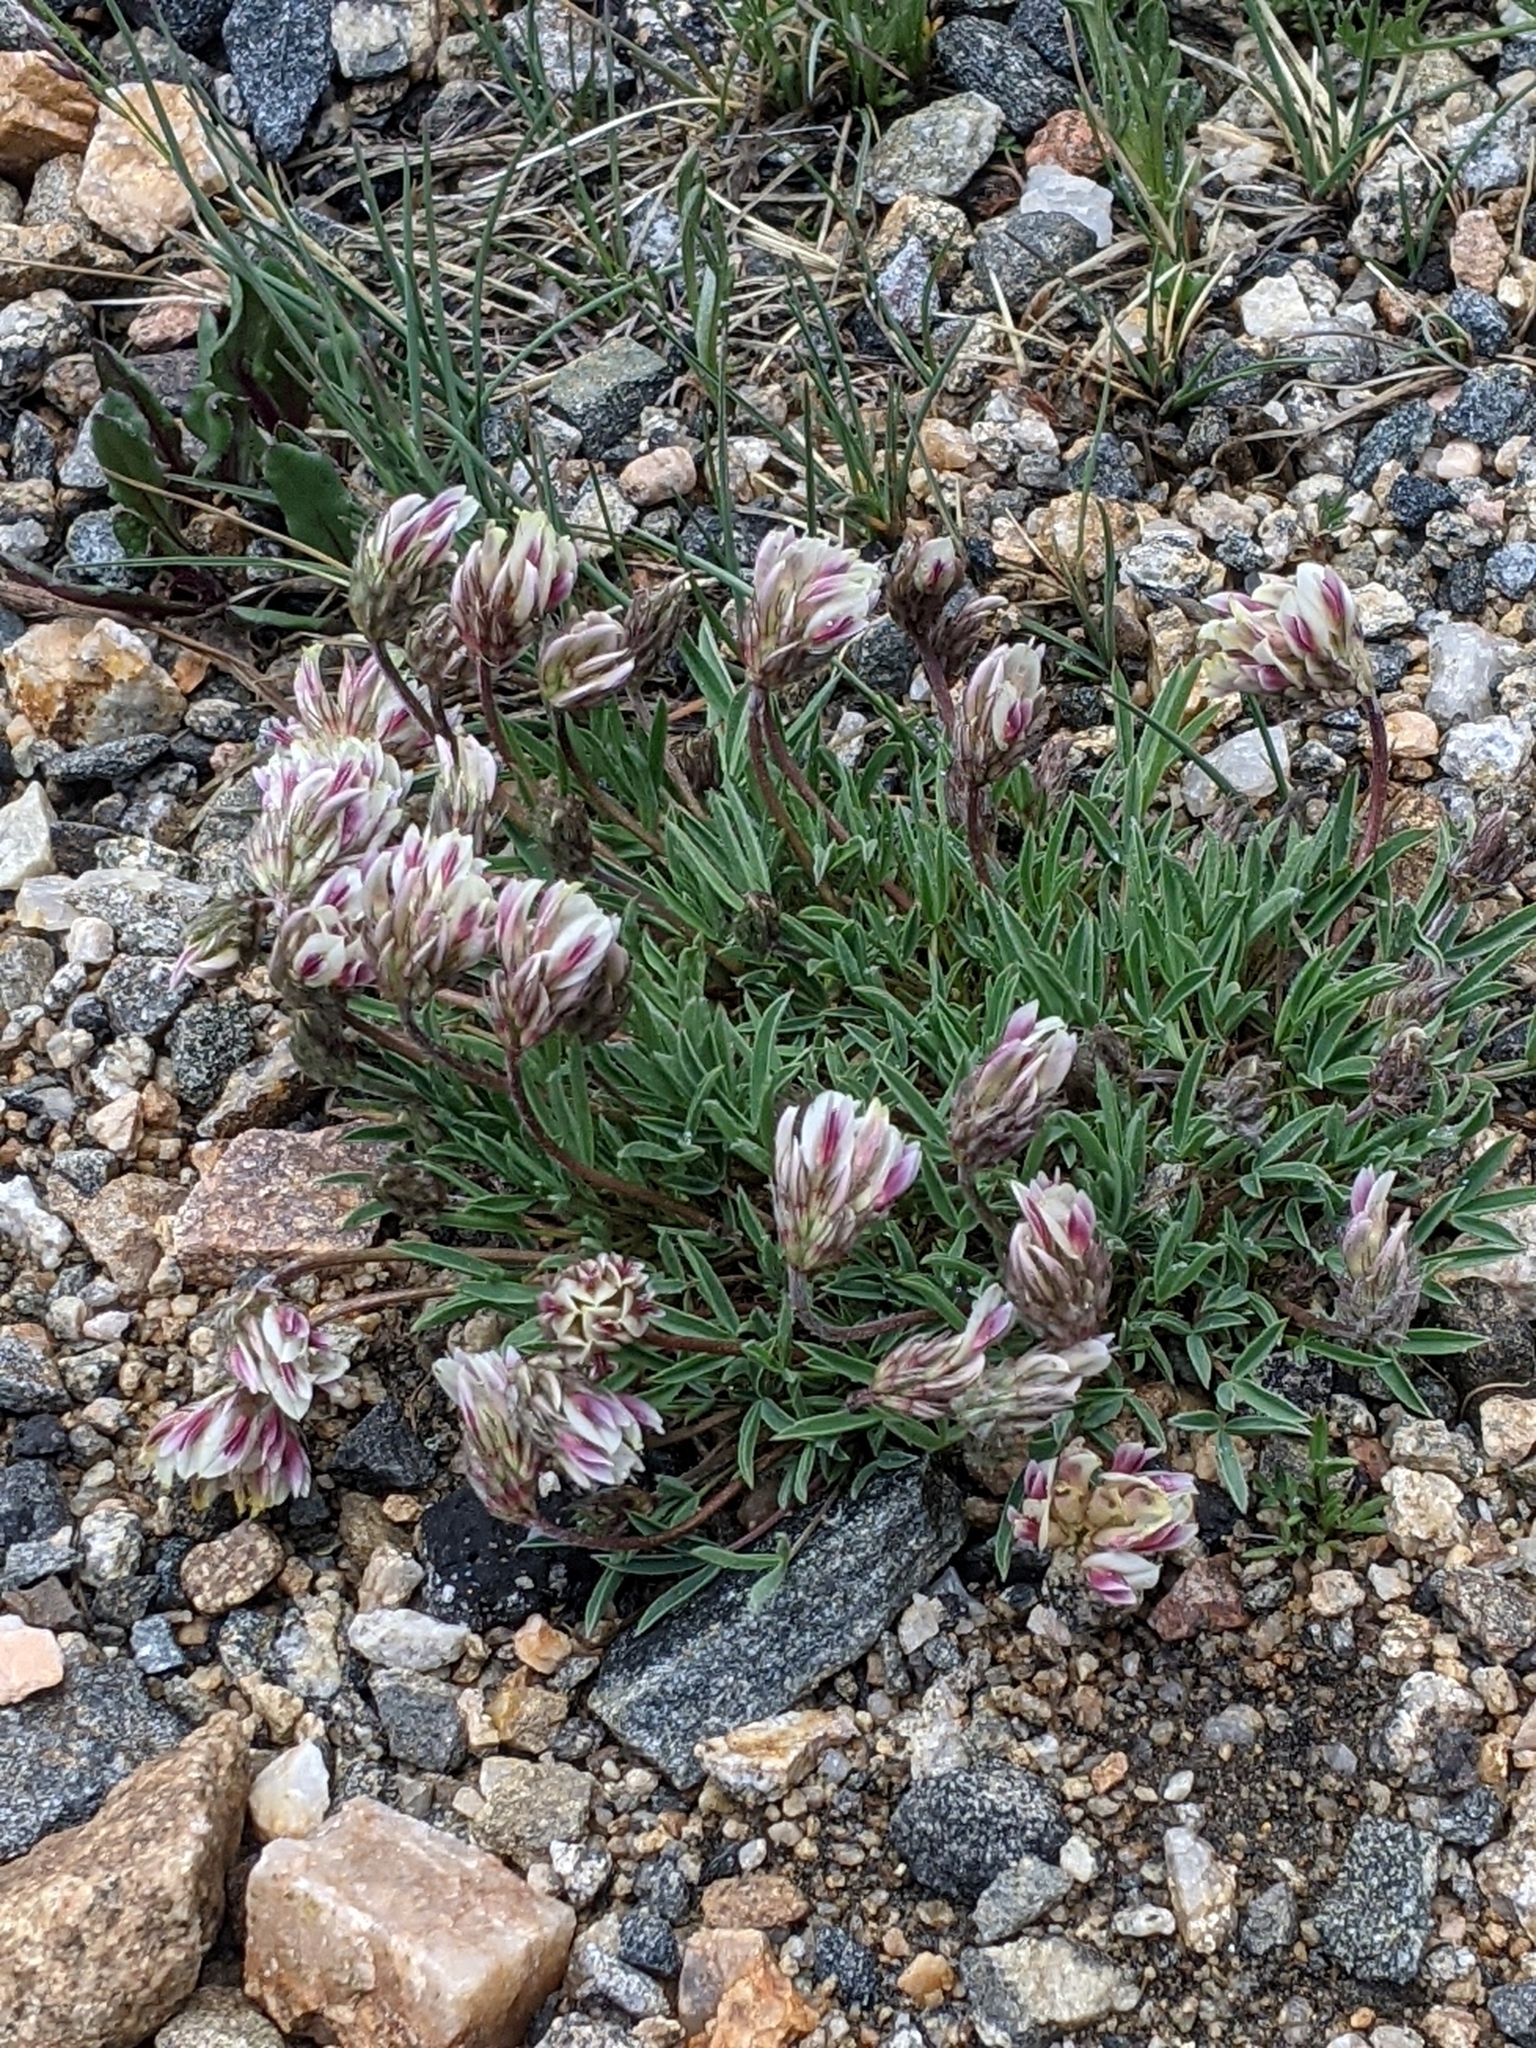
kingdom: Plantae
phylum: Tracheophyta
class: Magnoliopsida
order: Fabales
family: Fabaceae
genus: Trifolium
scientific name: Trifolium dasyphyllum
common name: Whip-root clover
